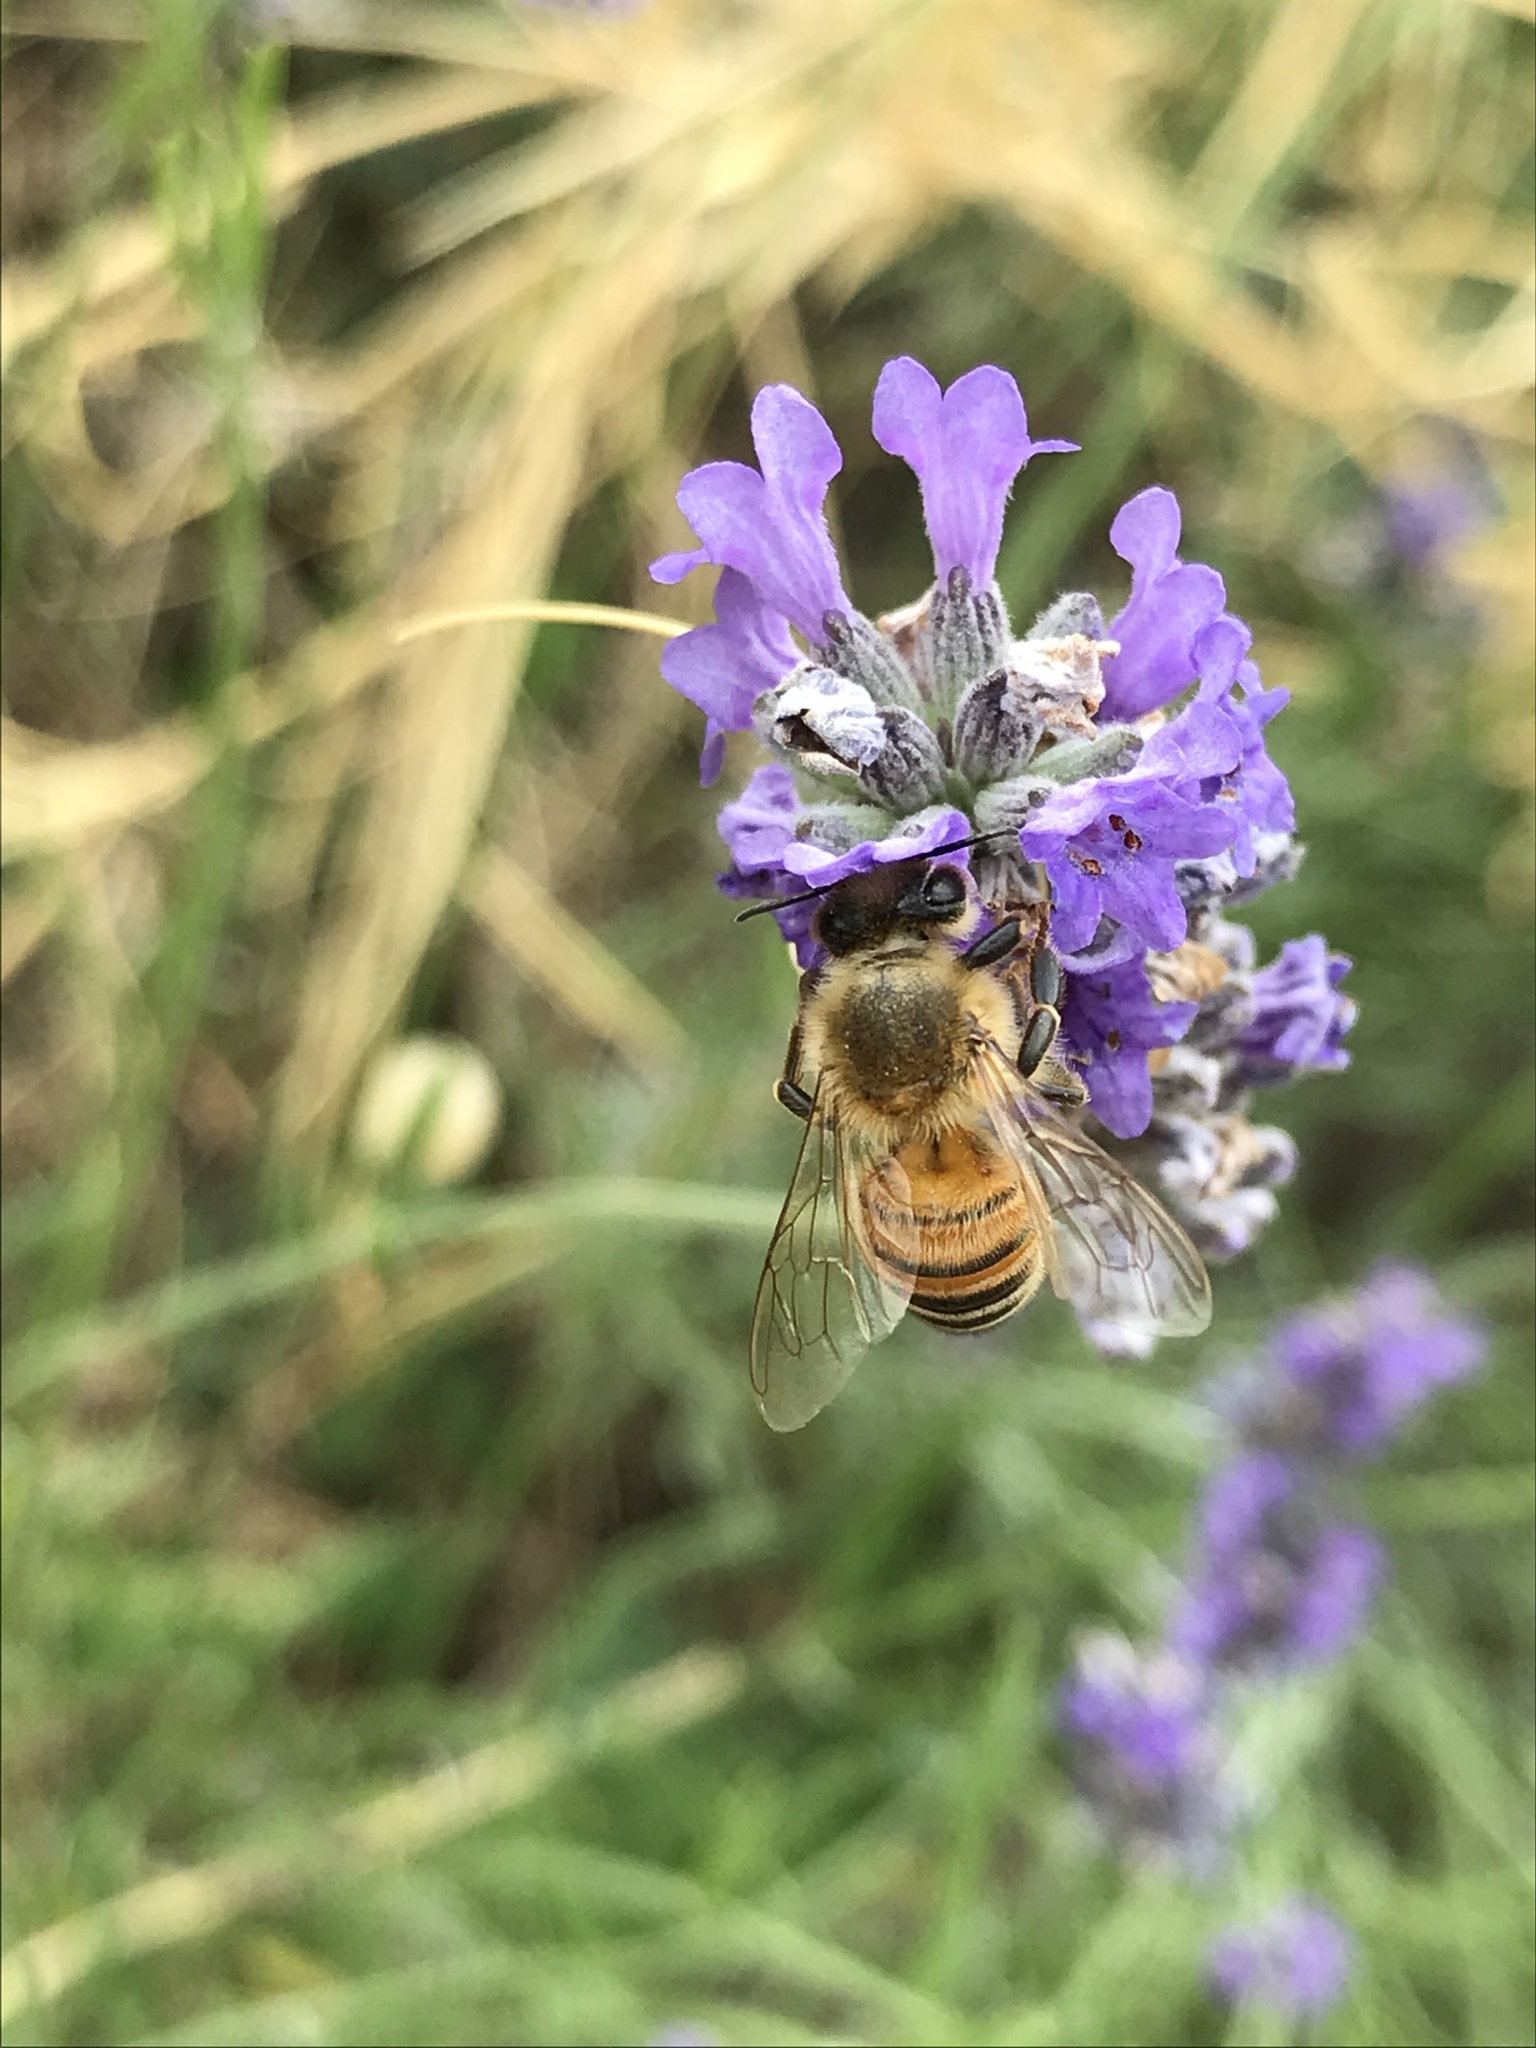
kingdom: Animalia
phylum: Arthropoda
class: Insecta
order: Hymenoptera
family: Apidae
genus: Apis
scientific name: Apis mellifera
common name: Honey bee
